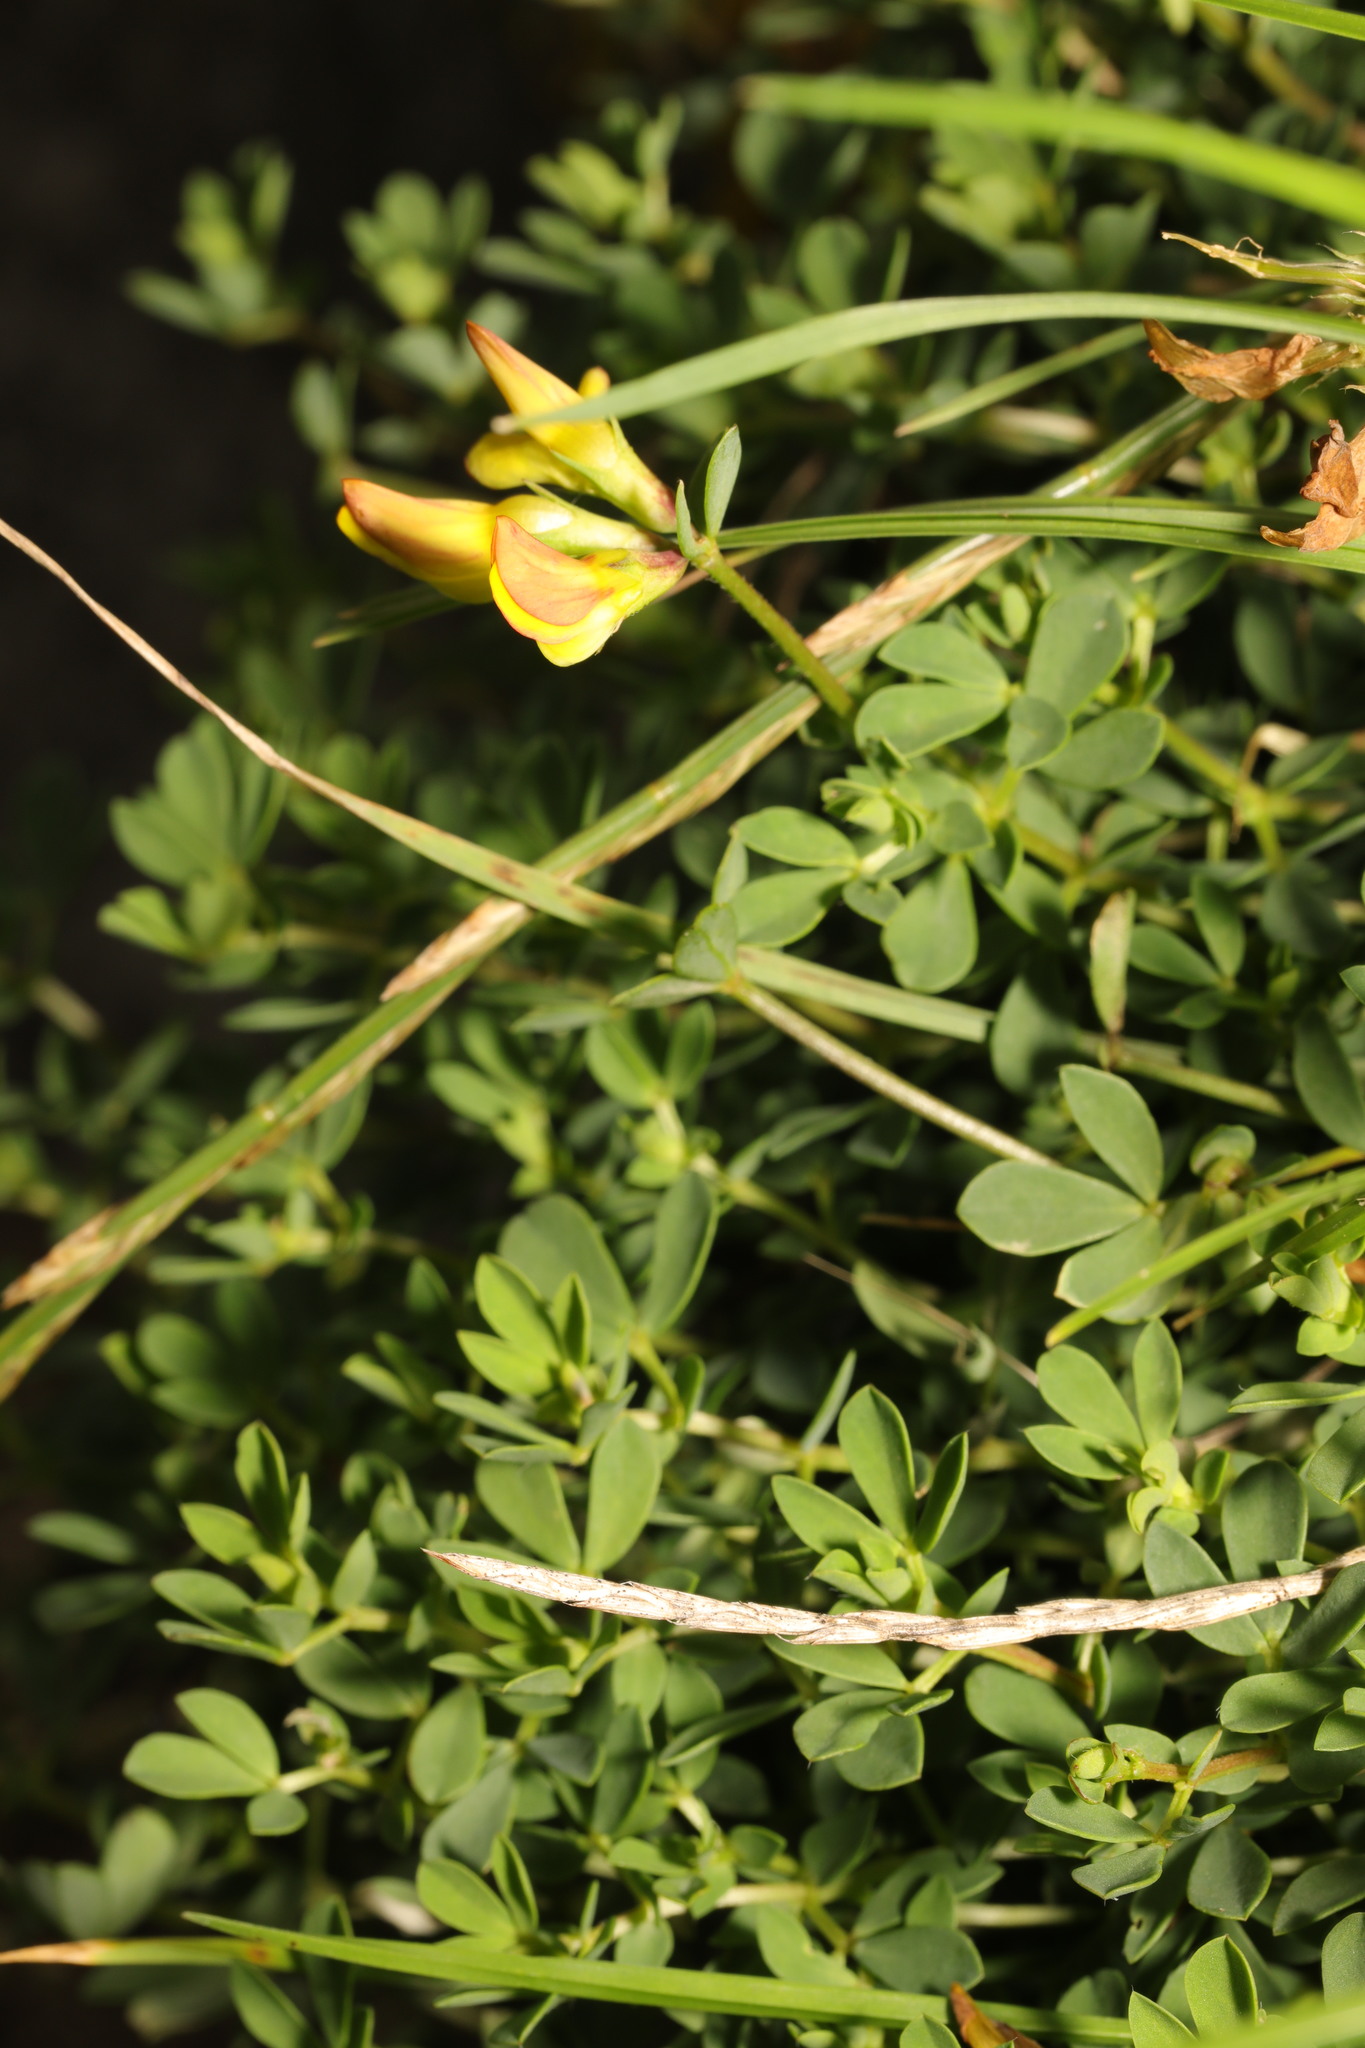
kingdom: Plantae
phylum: Tracheophyta
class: Magnoliopsida
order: Fabales
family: Fabaceae
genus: Lotus
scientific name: Lotus corniculatus
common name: Common bird's-foot-trefoil
